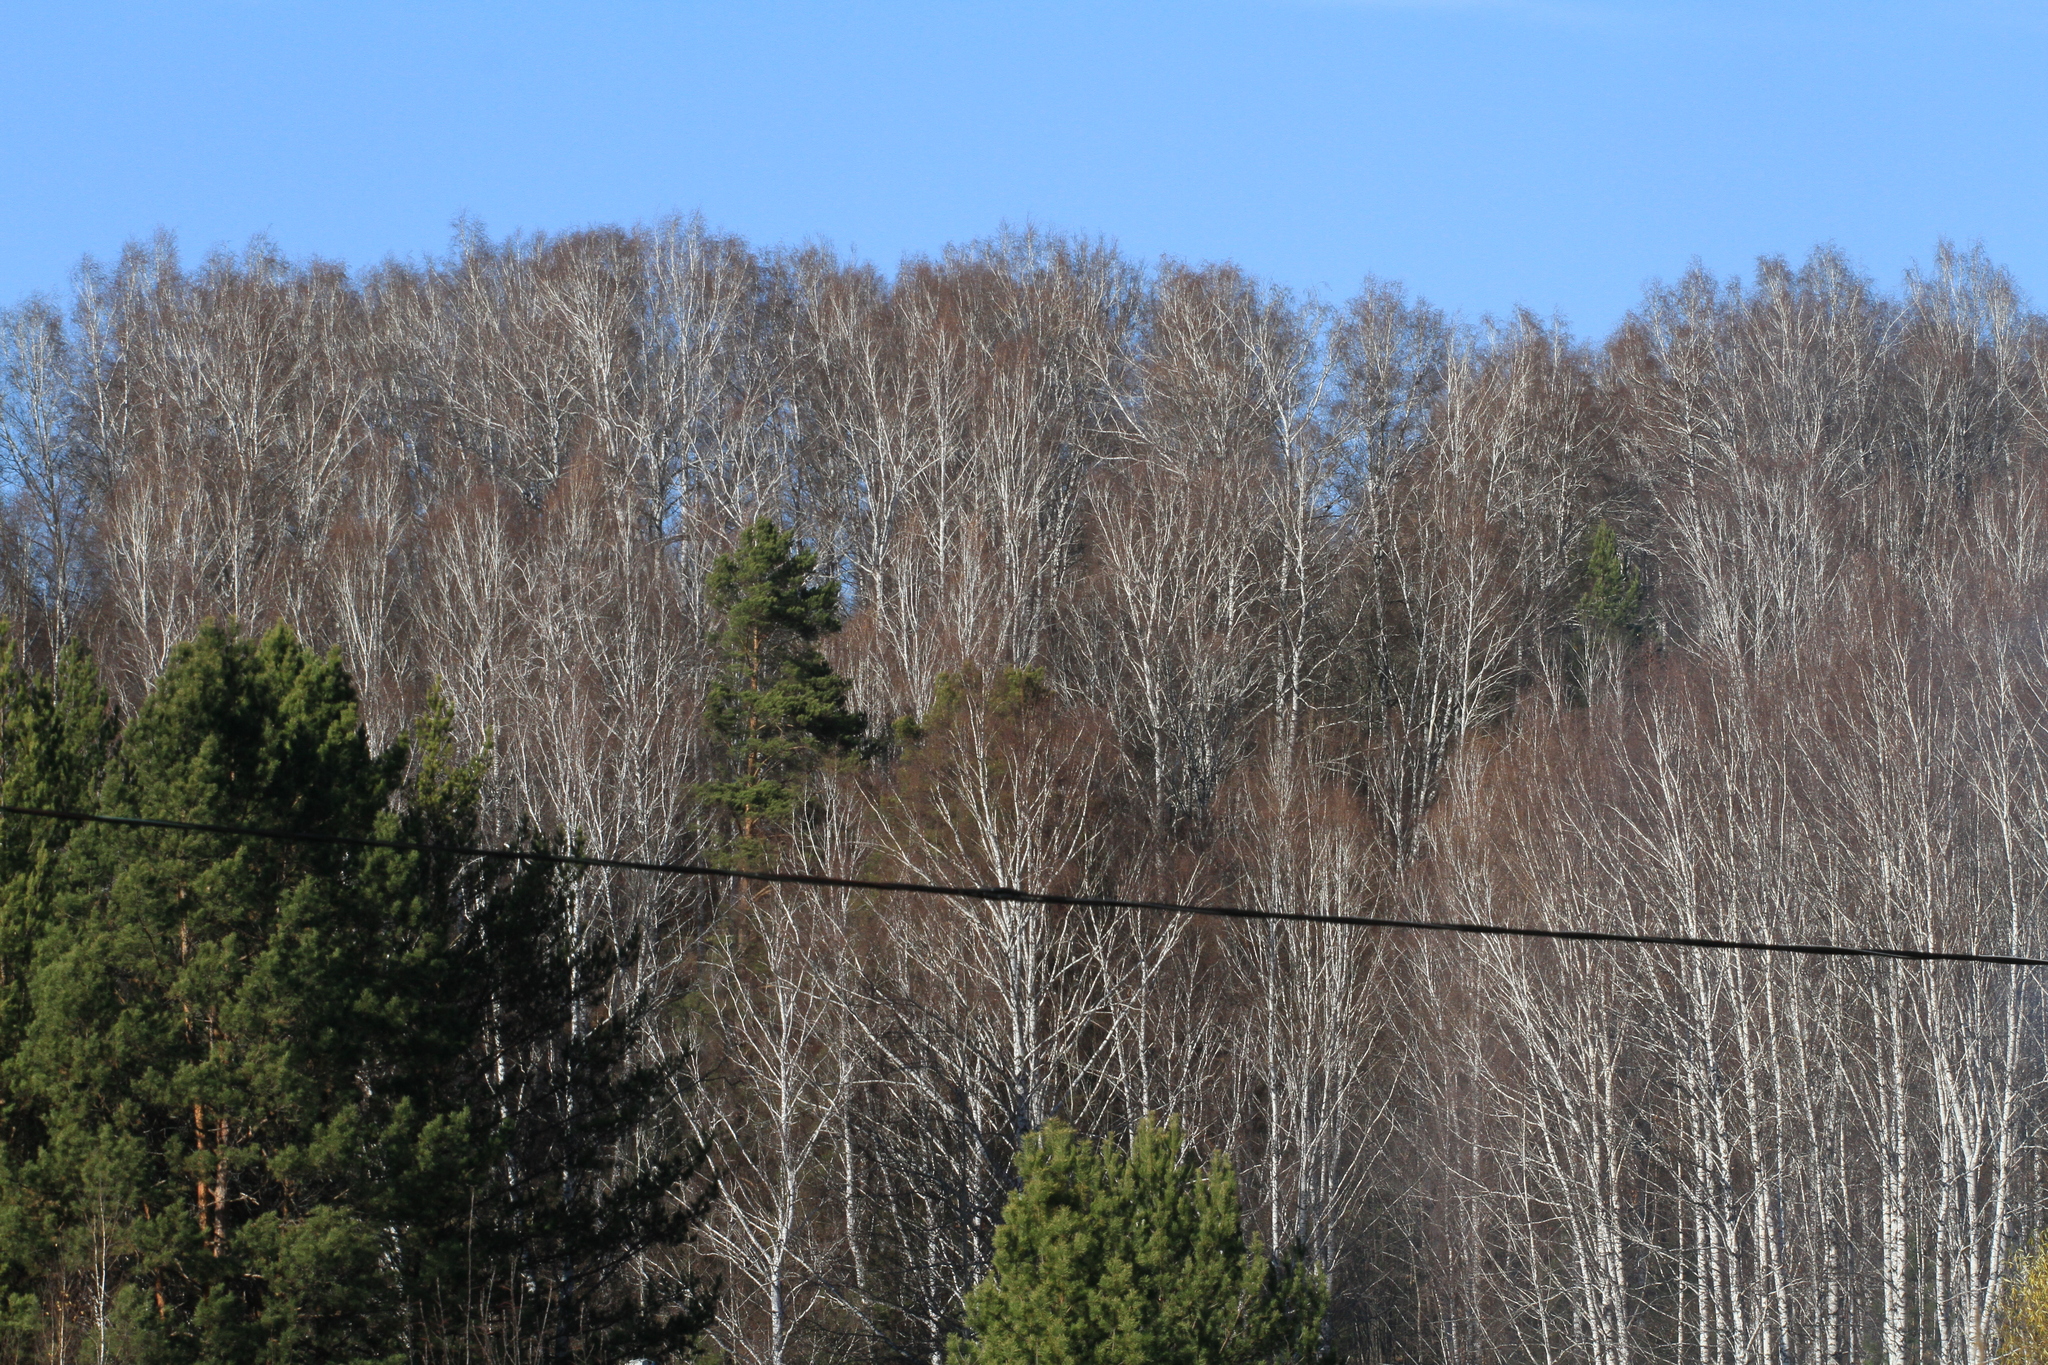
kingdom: Plantae
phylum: Tracheophyta
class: Pinopsida
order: Pinales
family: Pinaceae
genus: Pinus
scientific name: Pinus sylvestris
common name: Scots pine
